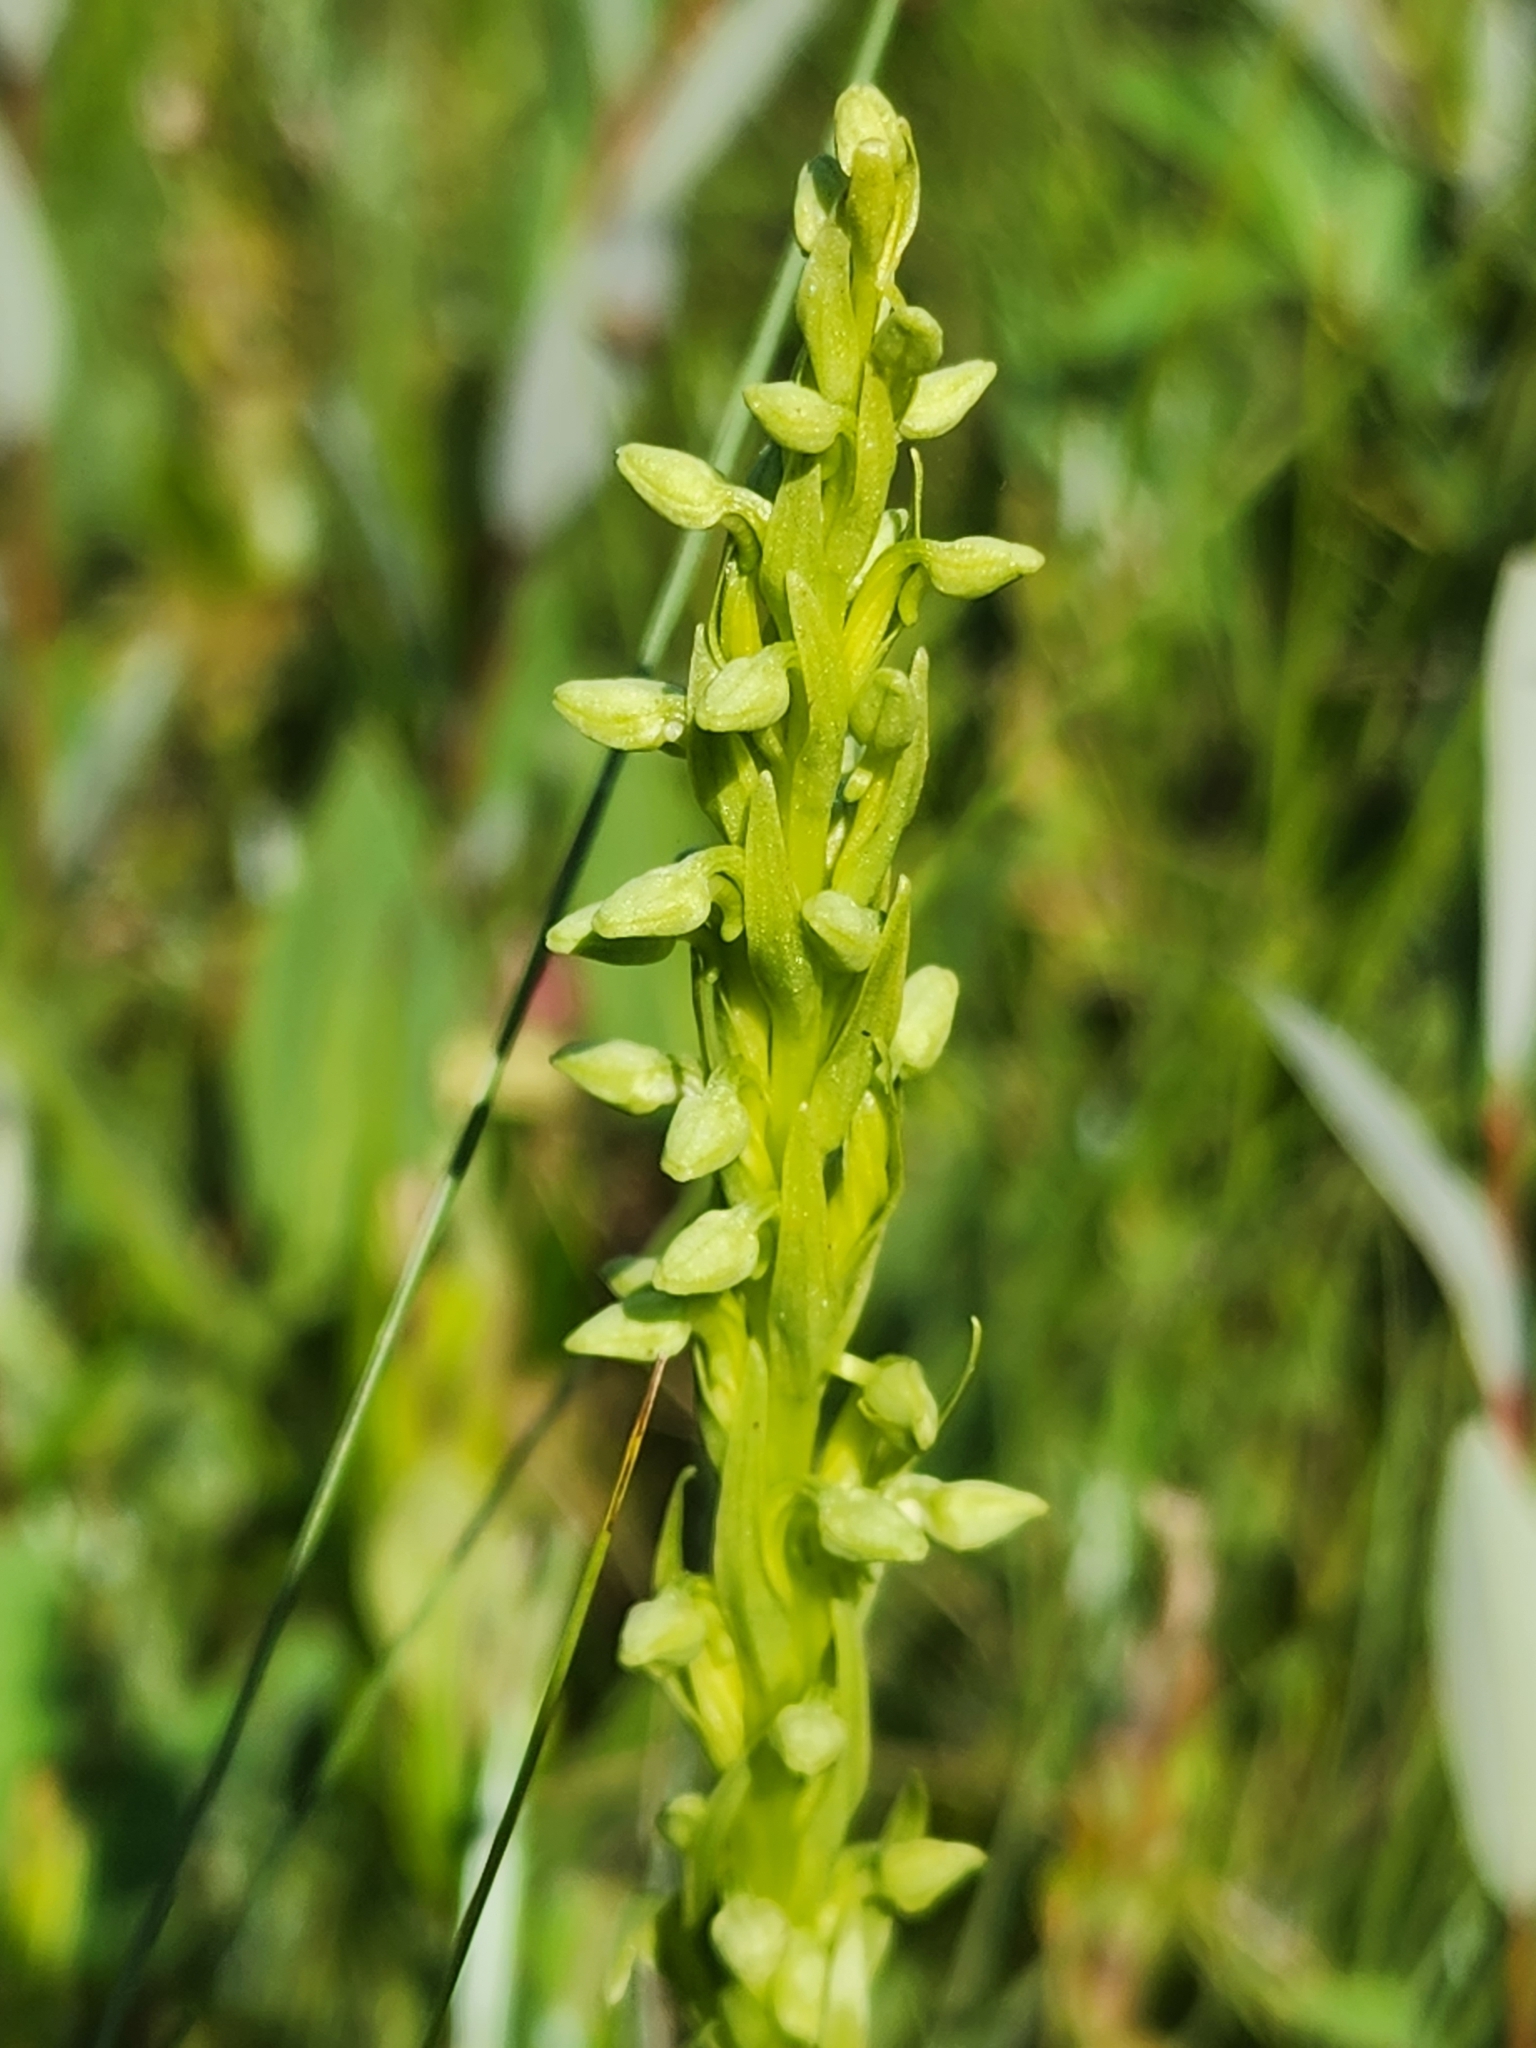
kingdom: Plantae
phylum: Tracheophyta
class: Liliopsida
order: Asparagales
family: Orchidaceae
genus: Platanthera
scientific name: Platanthera huronensis
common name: Fragrant green orchid
